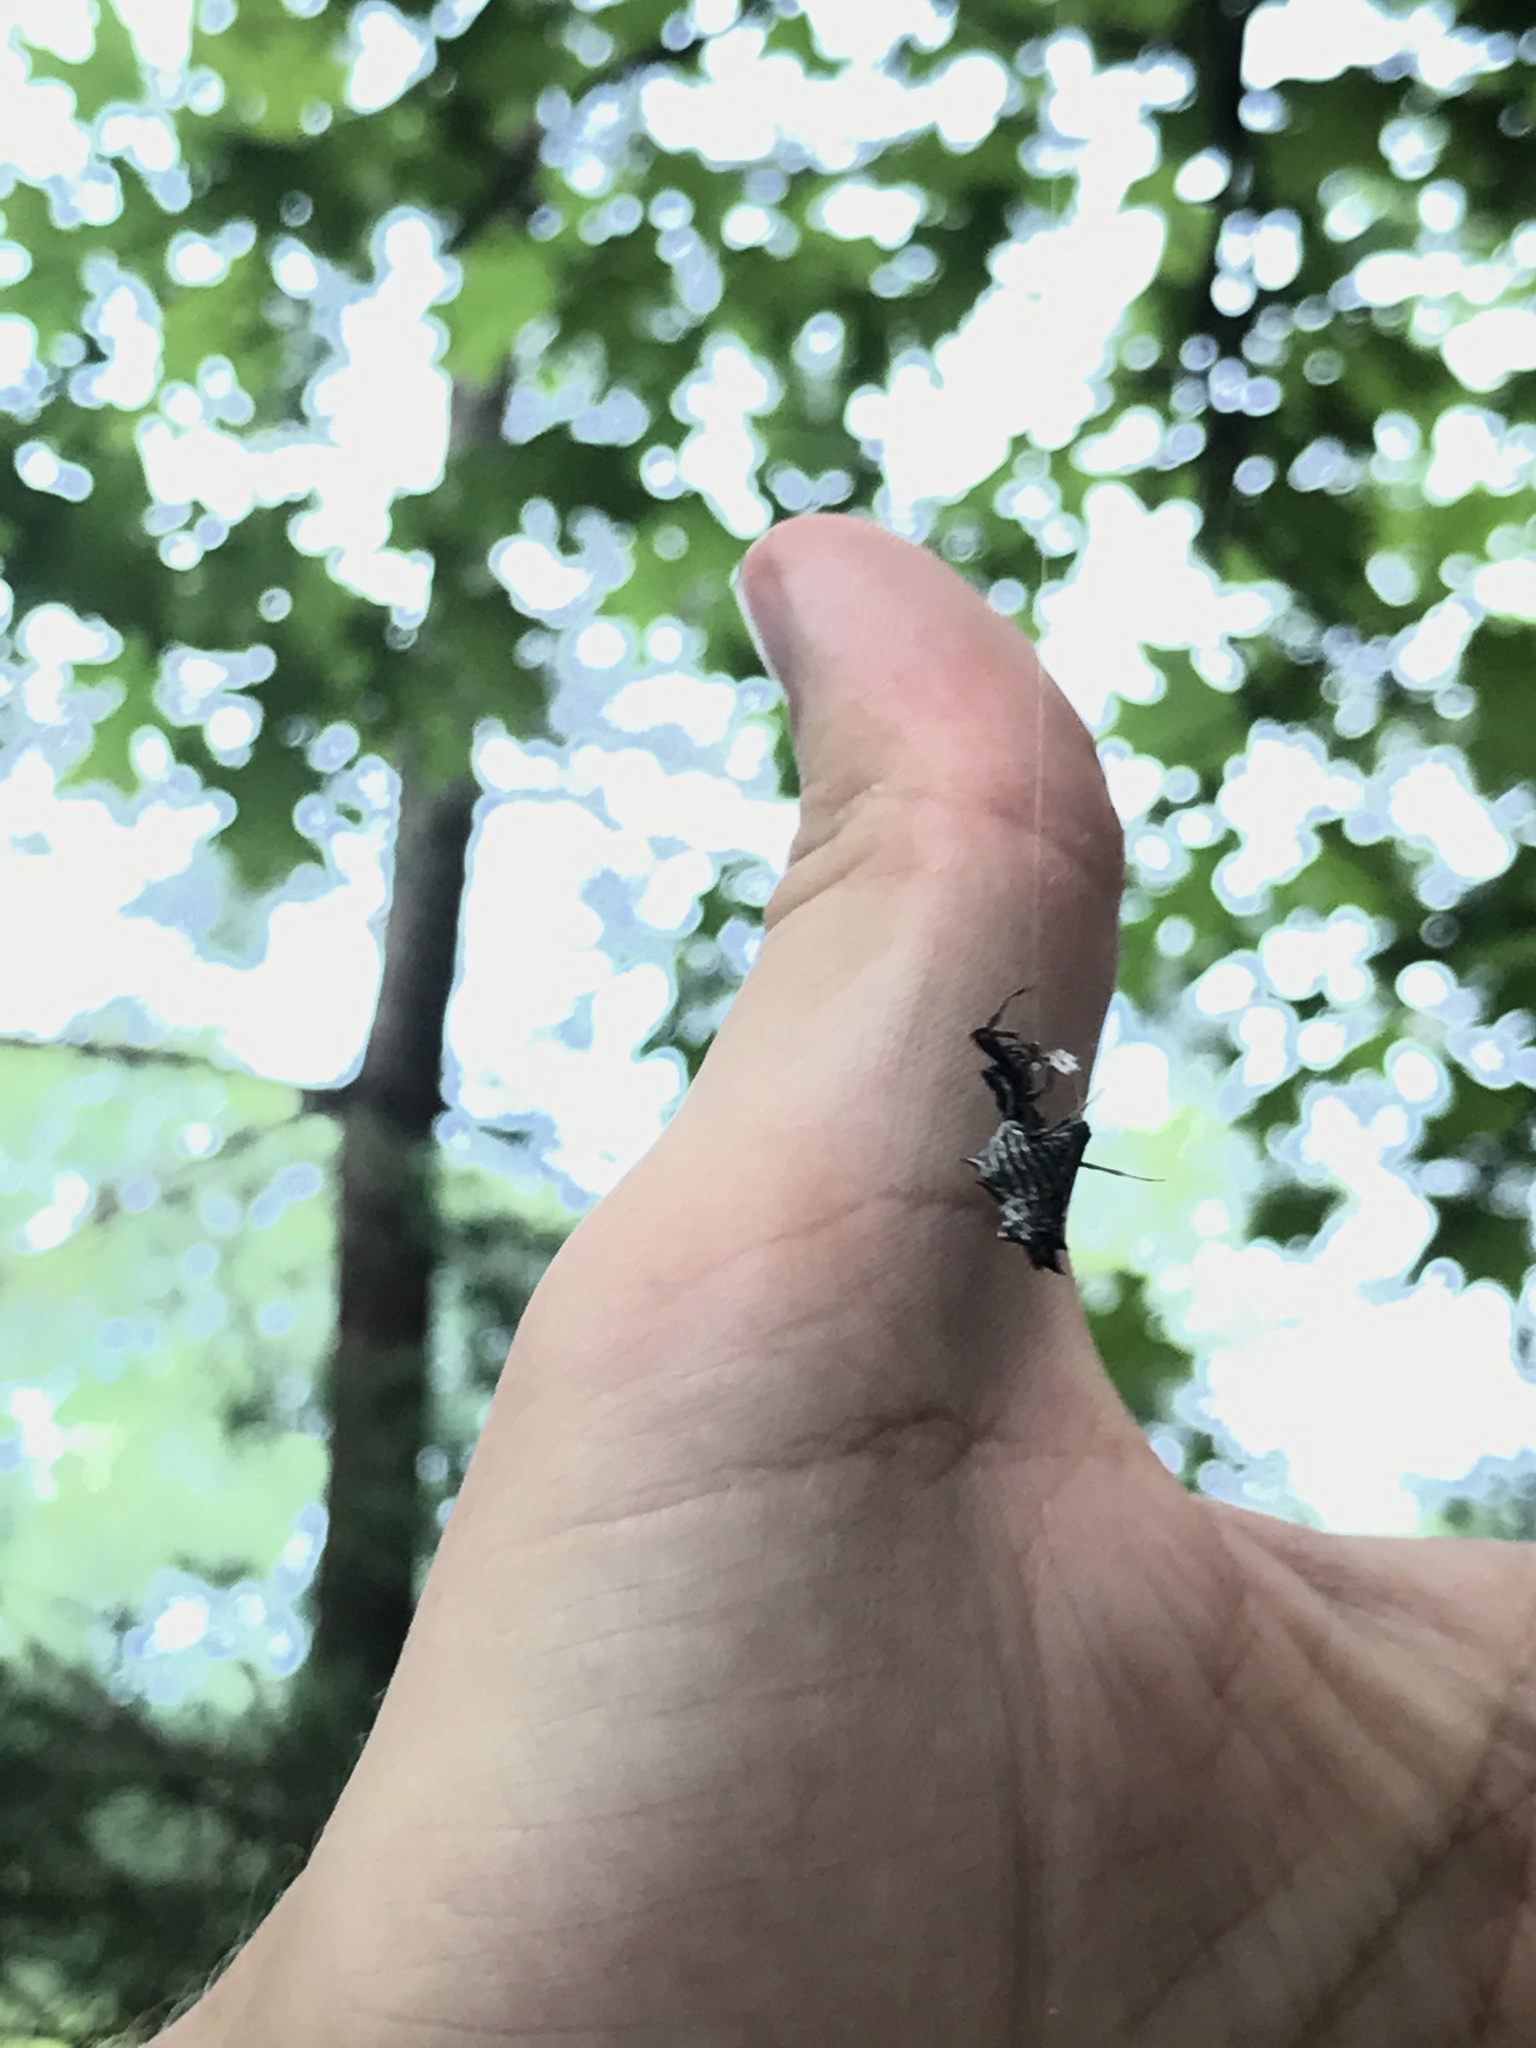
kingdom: Animalia
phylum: Arthropoda
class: Arachnida
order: Araneae
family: Araneidae
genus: Micrathena
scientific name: Micrathena gracilis
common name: Orb weavers
